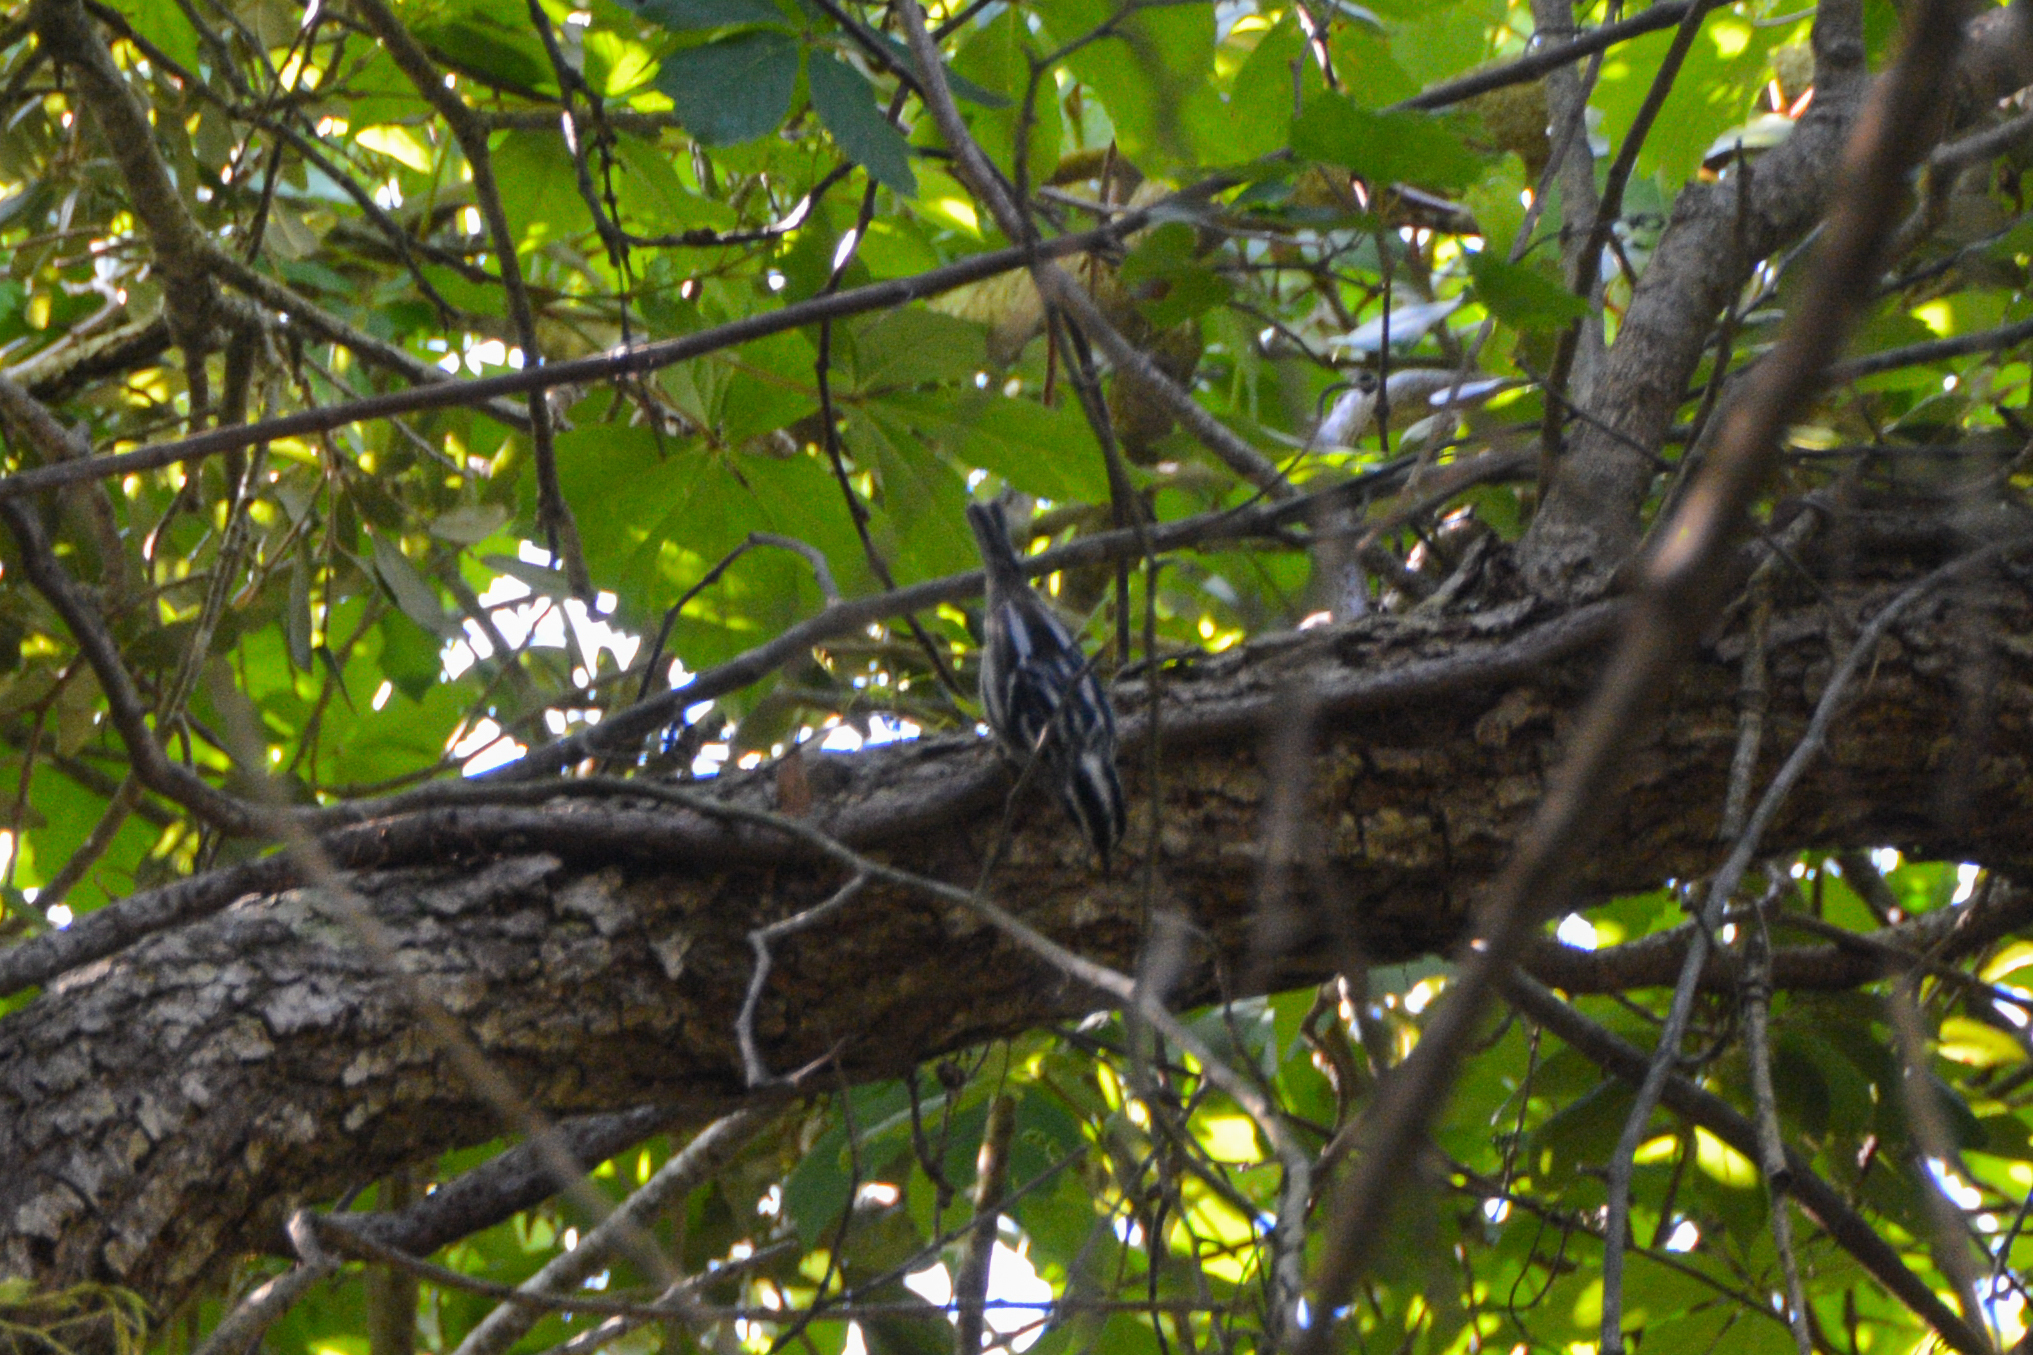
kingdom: Animalia
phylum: Chordata
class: Aves
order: Passeriformes
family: Parulidae
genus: Mniotilta
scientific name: Mniotilta varia
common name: Black-and-white warbler
